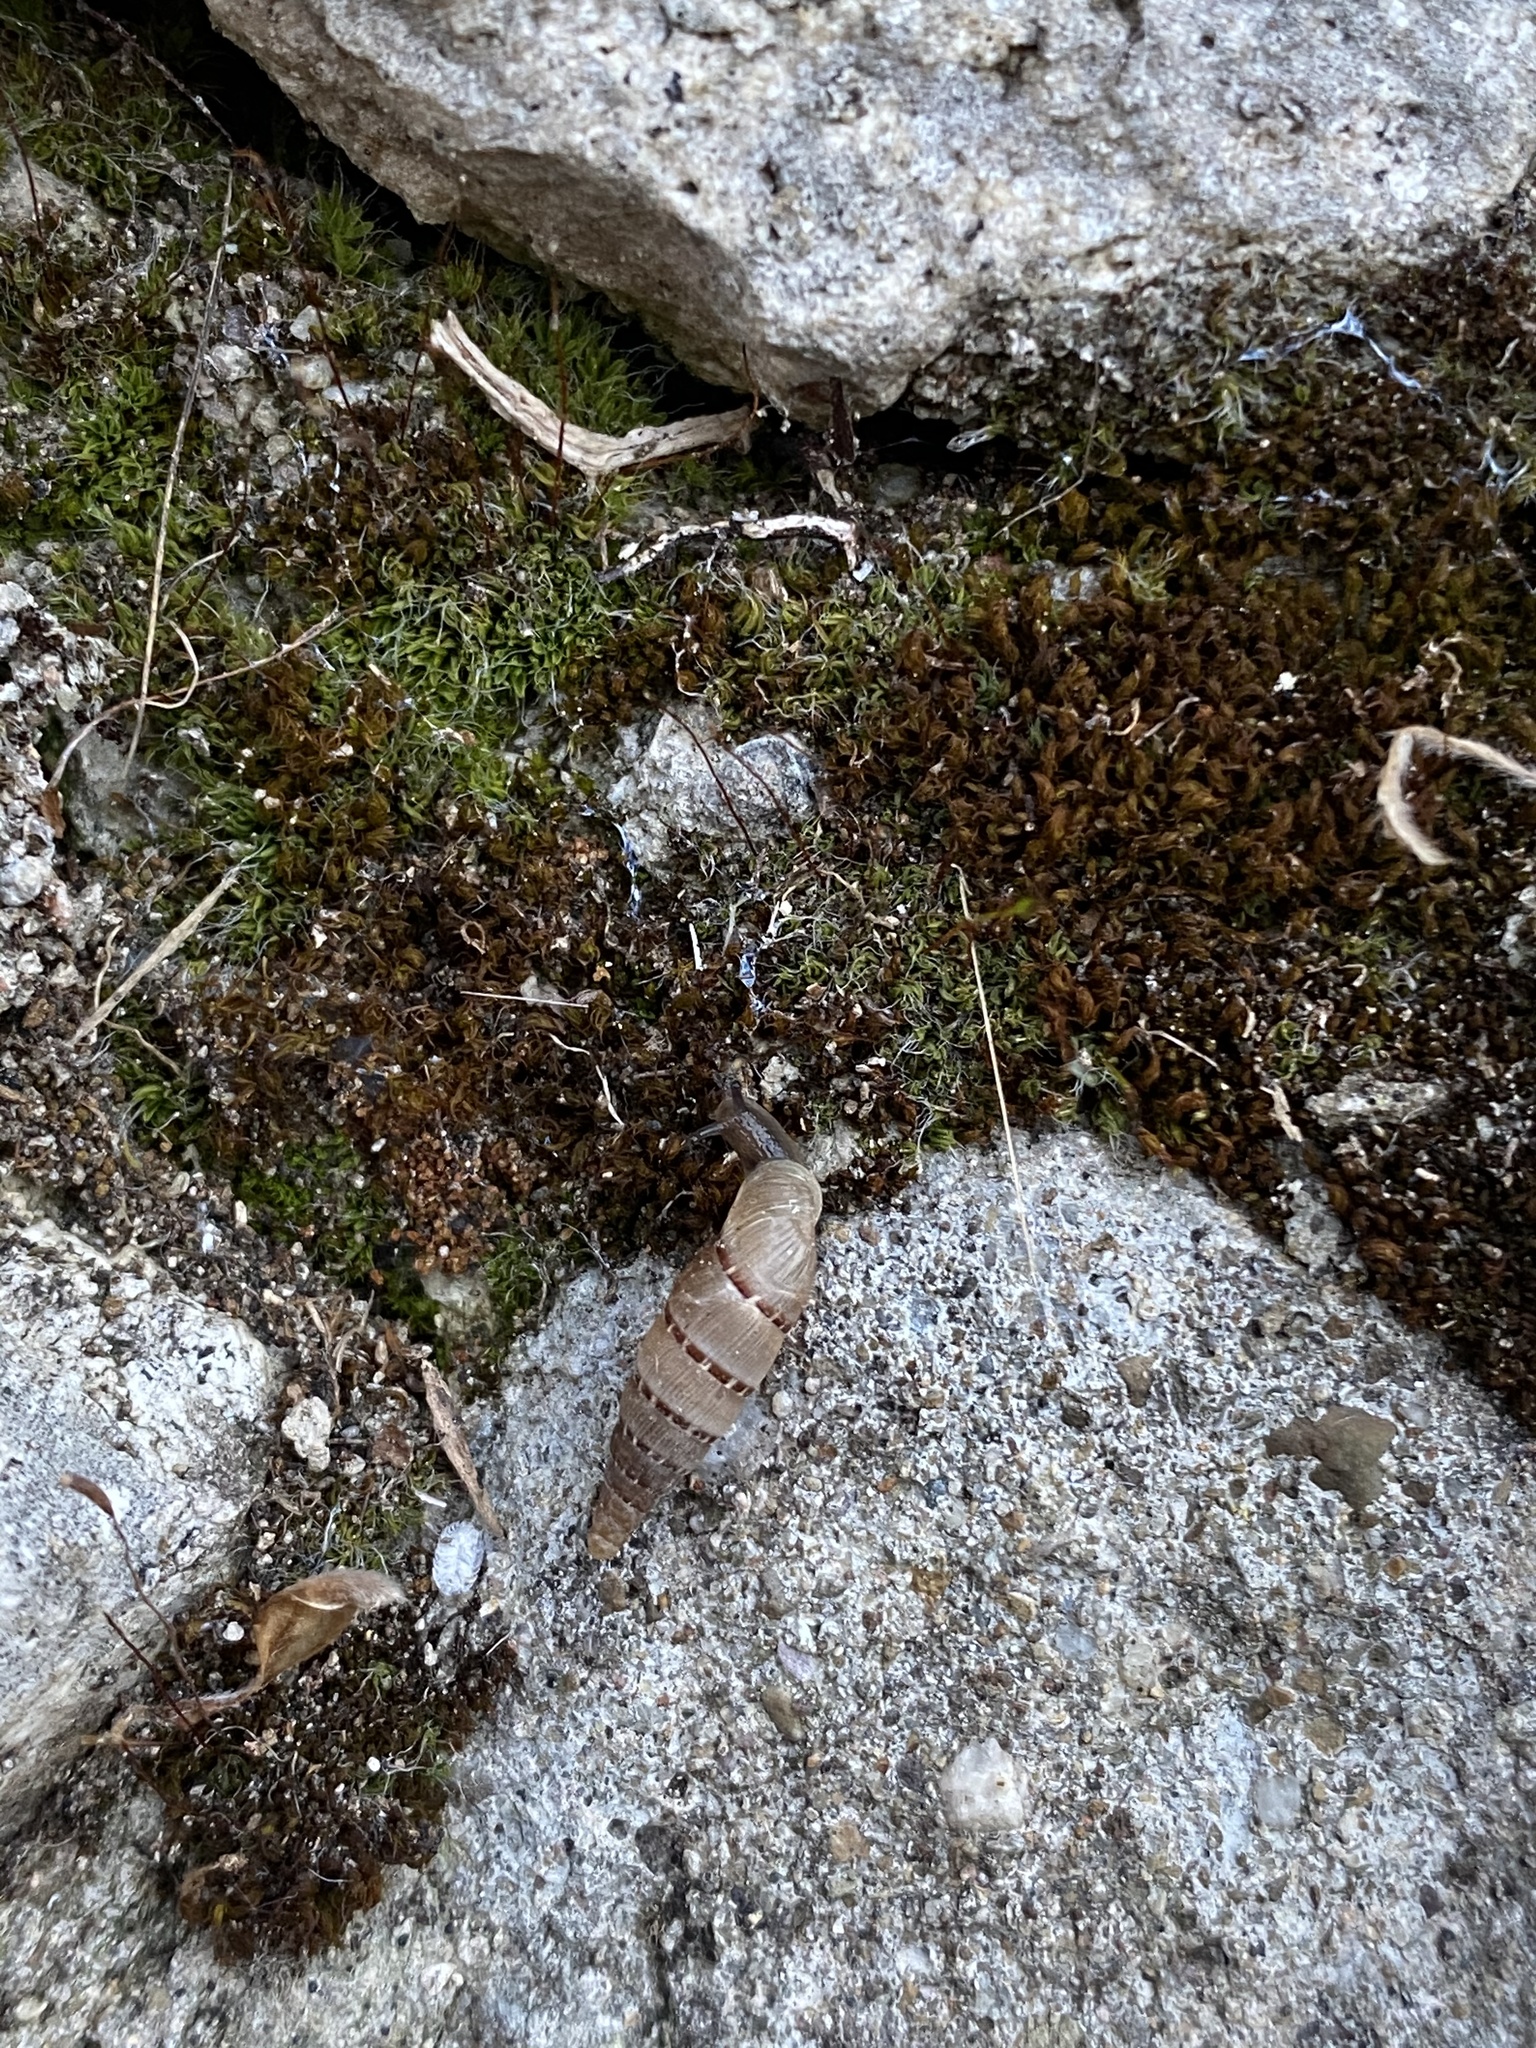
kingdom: Animalia
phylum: Mollusca
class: Gastropoda
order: Stylommatophora
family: Clausiliidae
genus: Papillifera
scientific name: Papillifera papillaris
